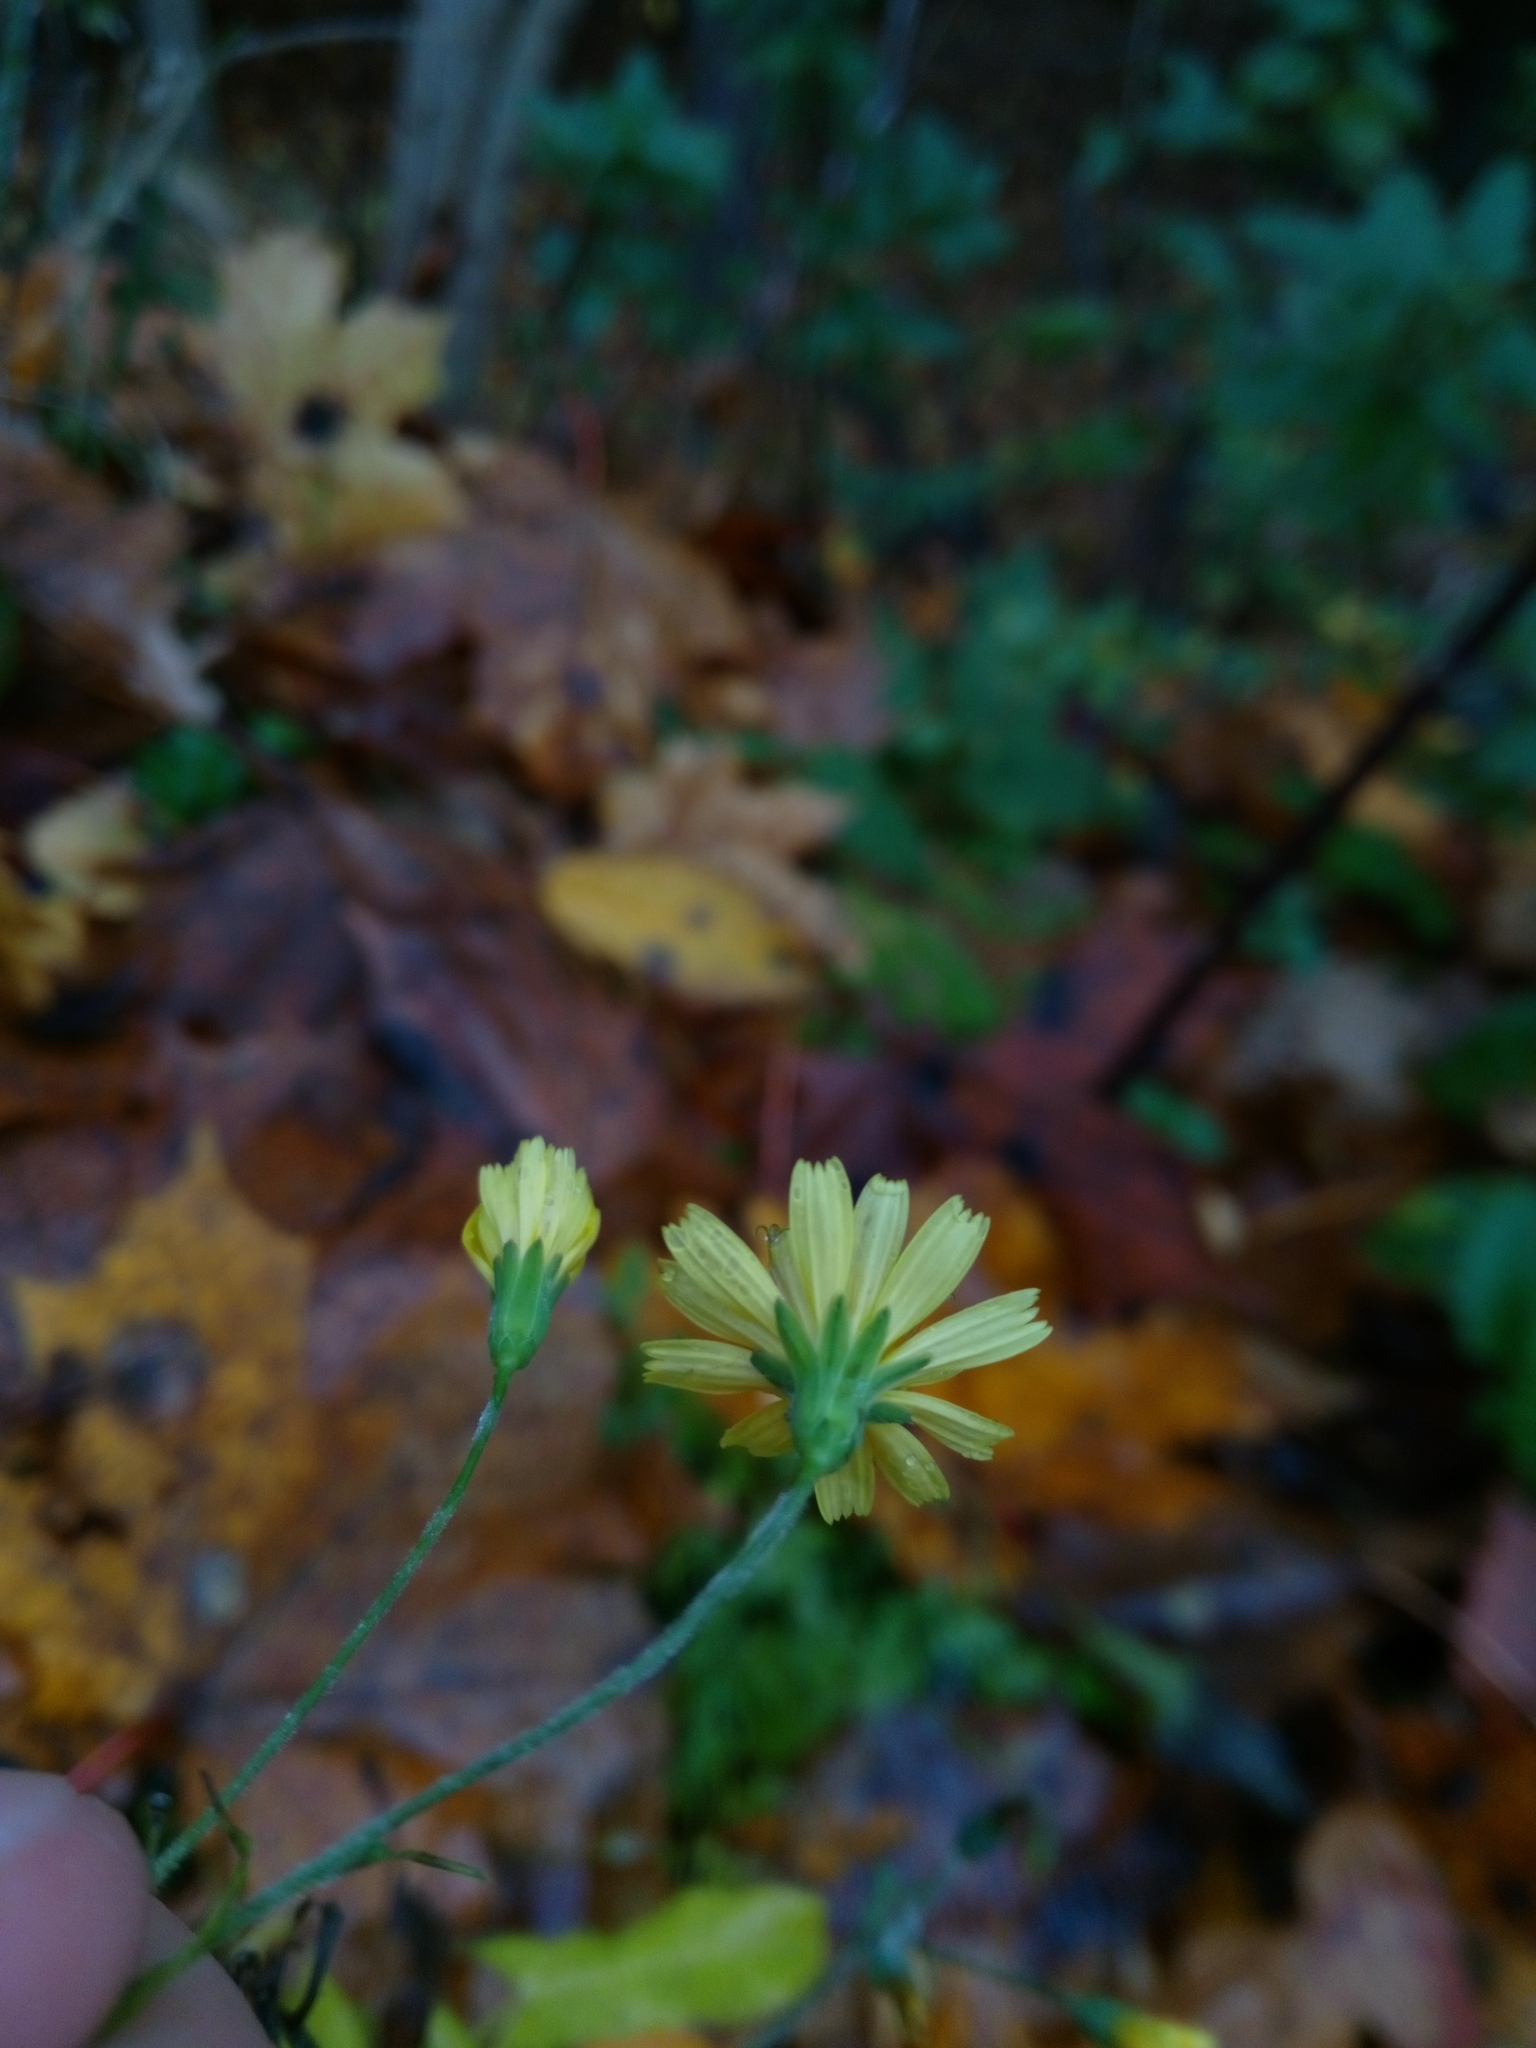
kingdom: Plantae
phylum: Tracheophyta
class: Magnoliopsida
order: Asterales
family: Asteraceae
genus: Lapsana
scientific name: Lapsana communis
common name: Nipplewort
